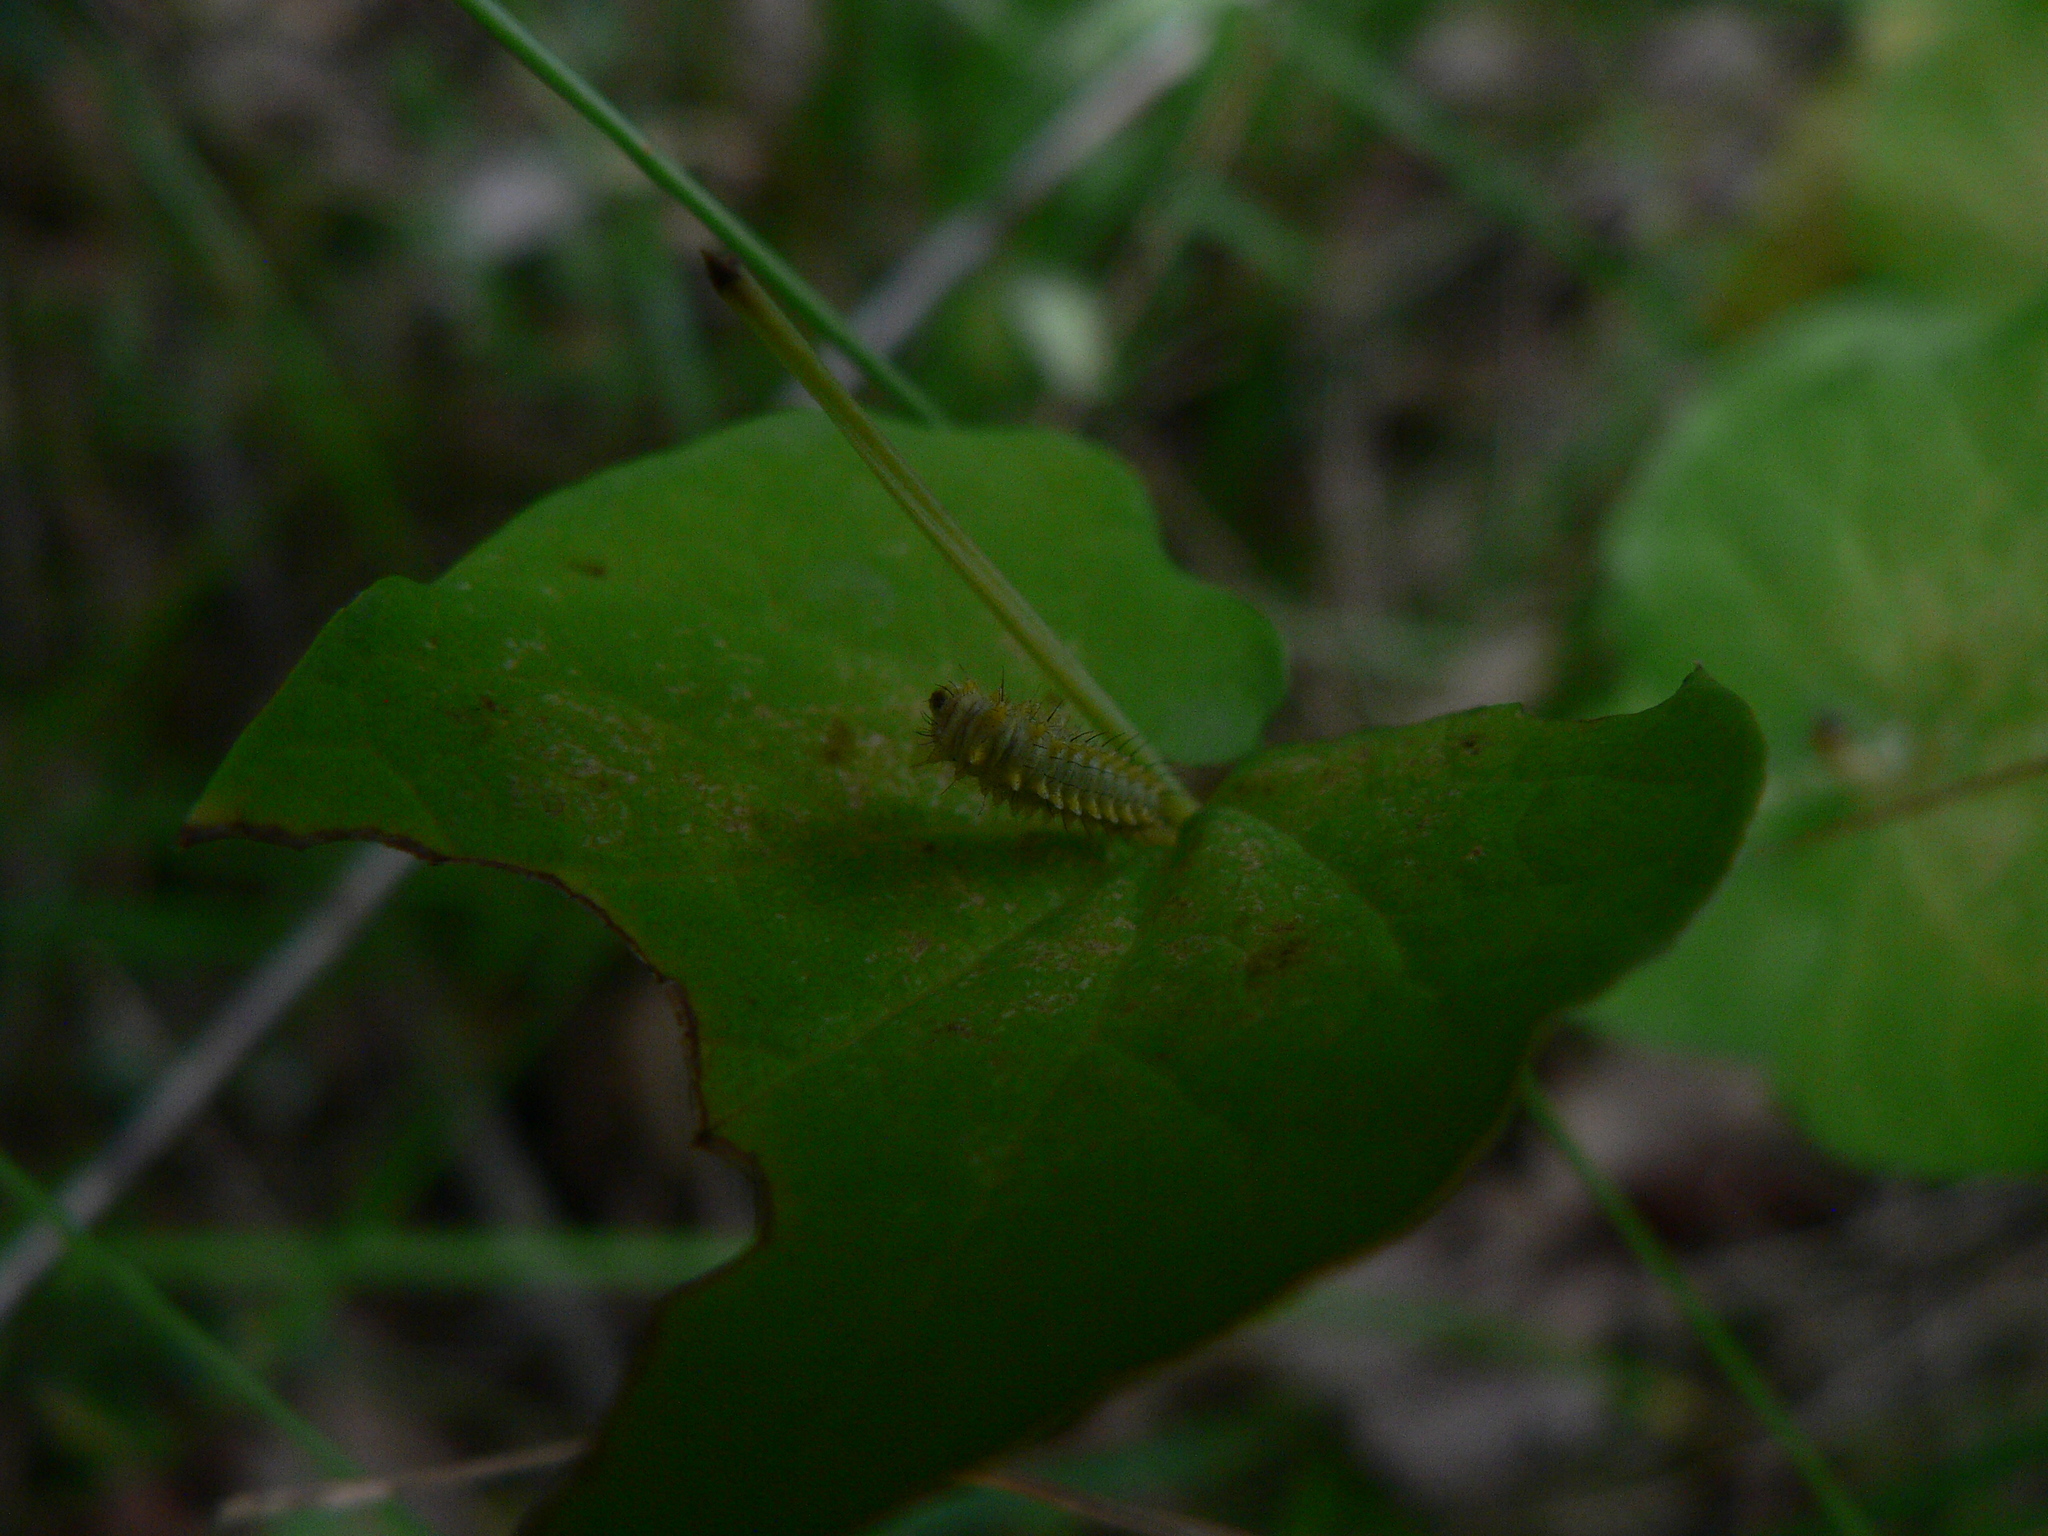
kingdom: Animalia
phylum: Arthropoda
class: Insecta
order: Lepidoptera
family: Papilionidae
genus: Zerynthia
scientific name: Zerynthia polyxena
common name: Southern festoon
